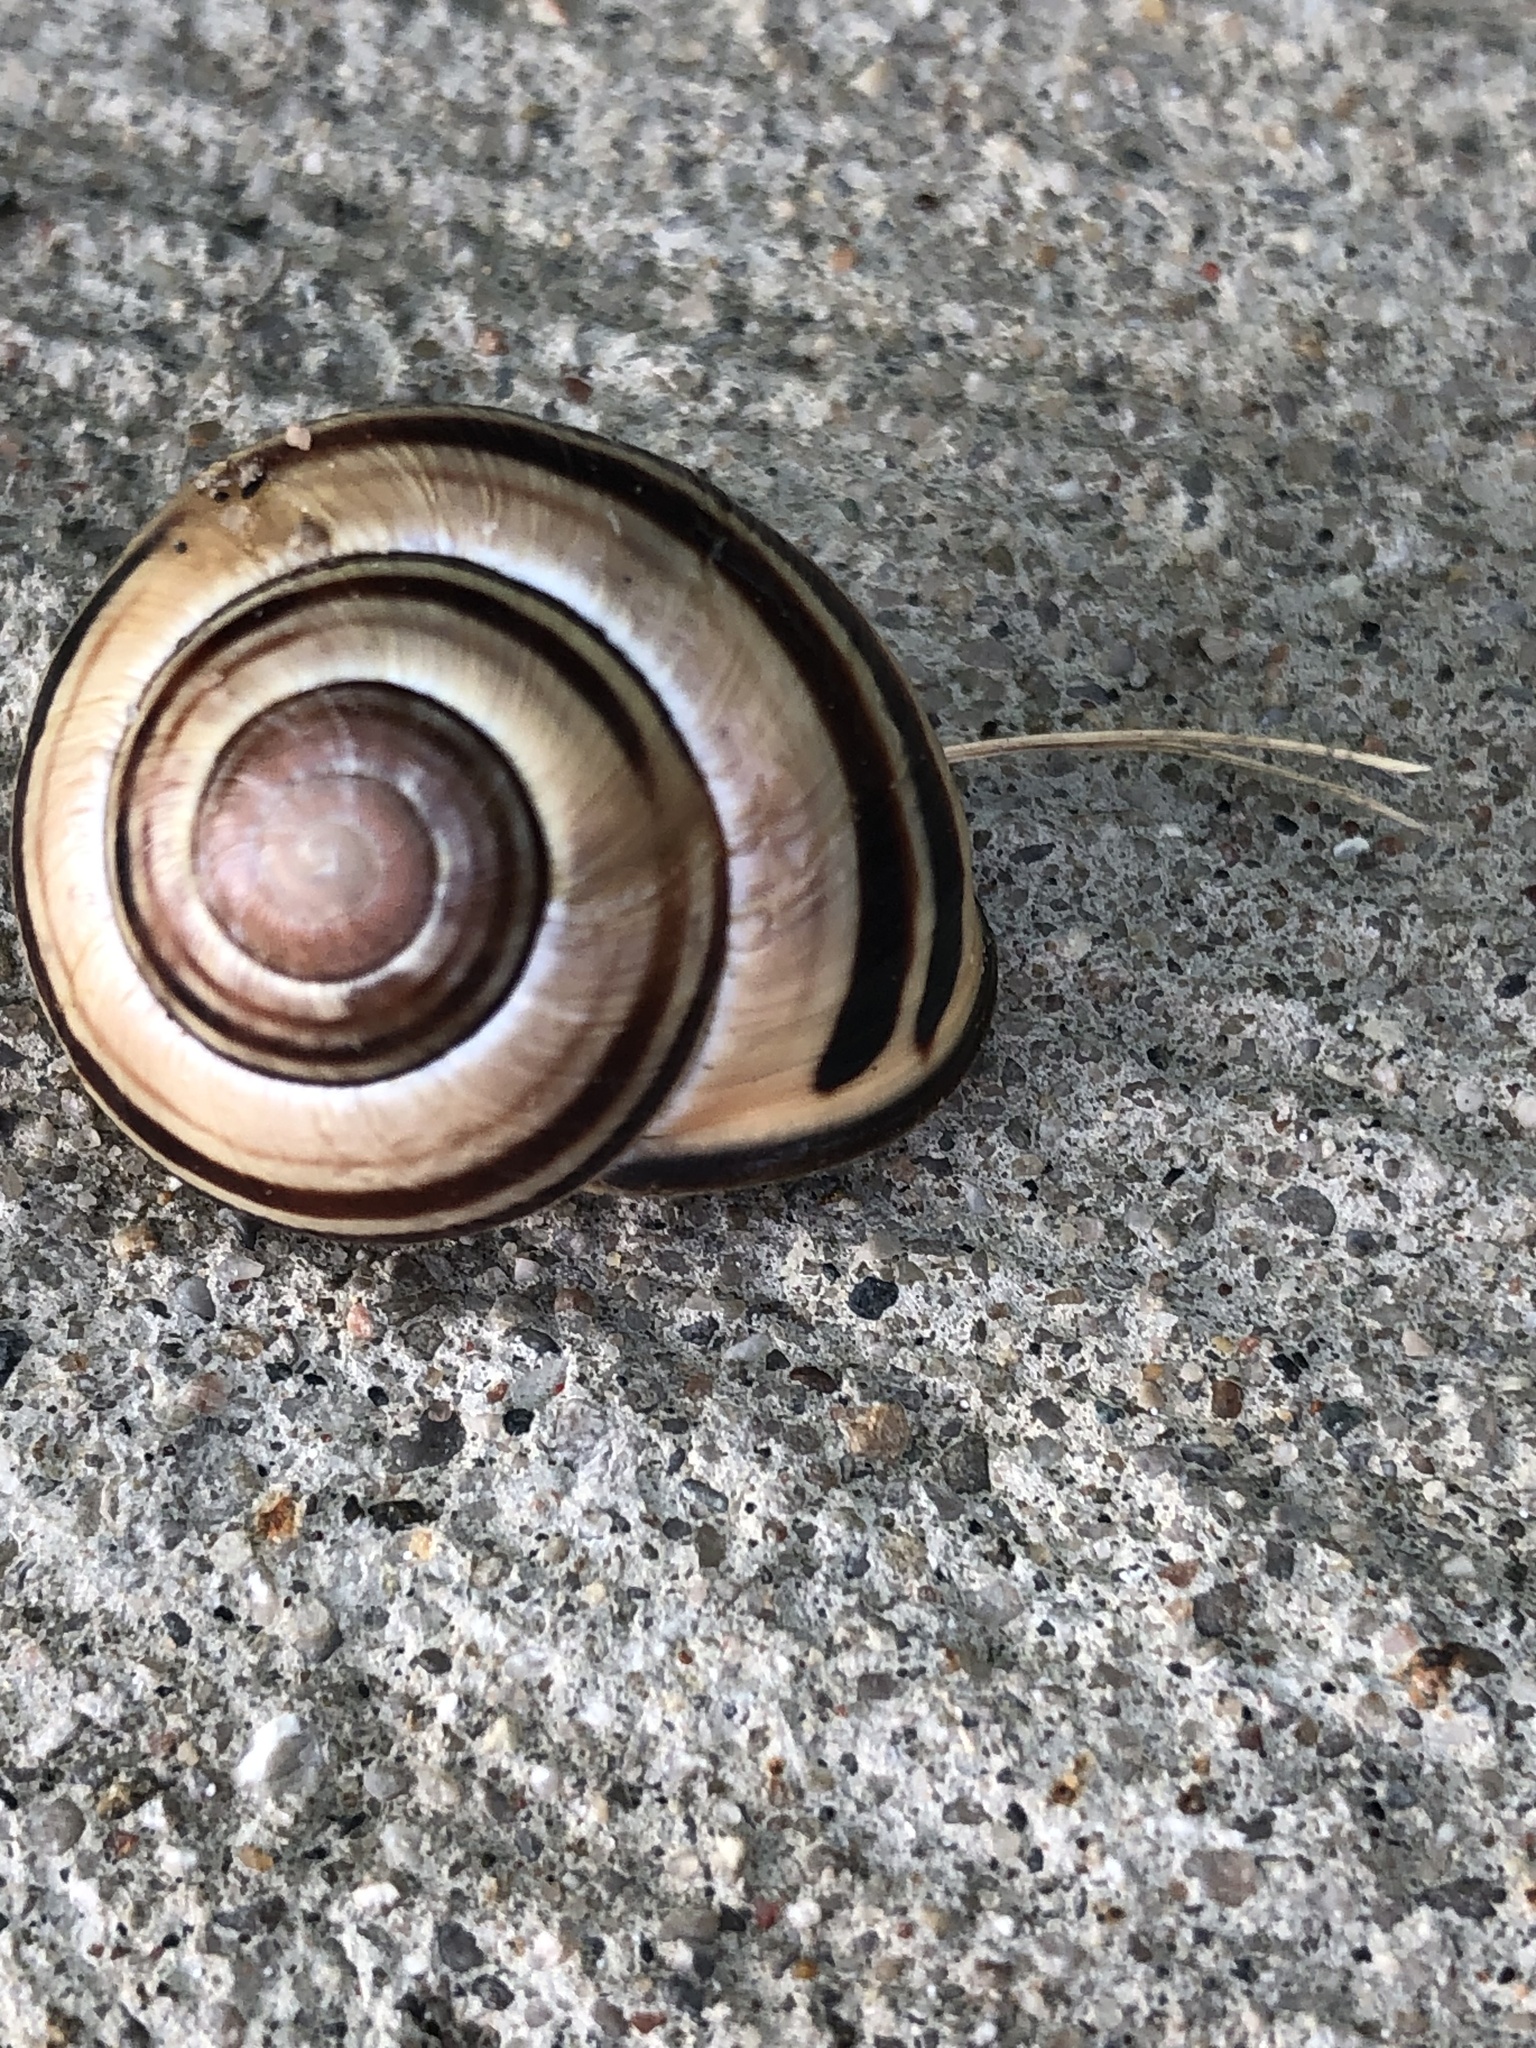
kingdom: Animalia
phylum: Mollusca
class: Gastropoda
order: Stylommatophora
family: Helicidae
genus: Cepaea
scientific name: Cepaea nemoralis
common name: Grovesnail
